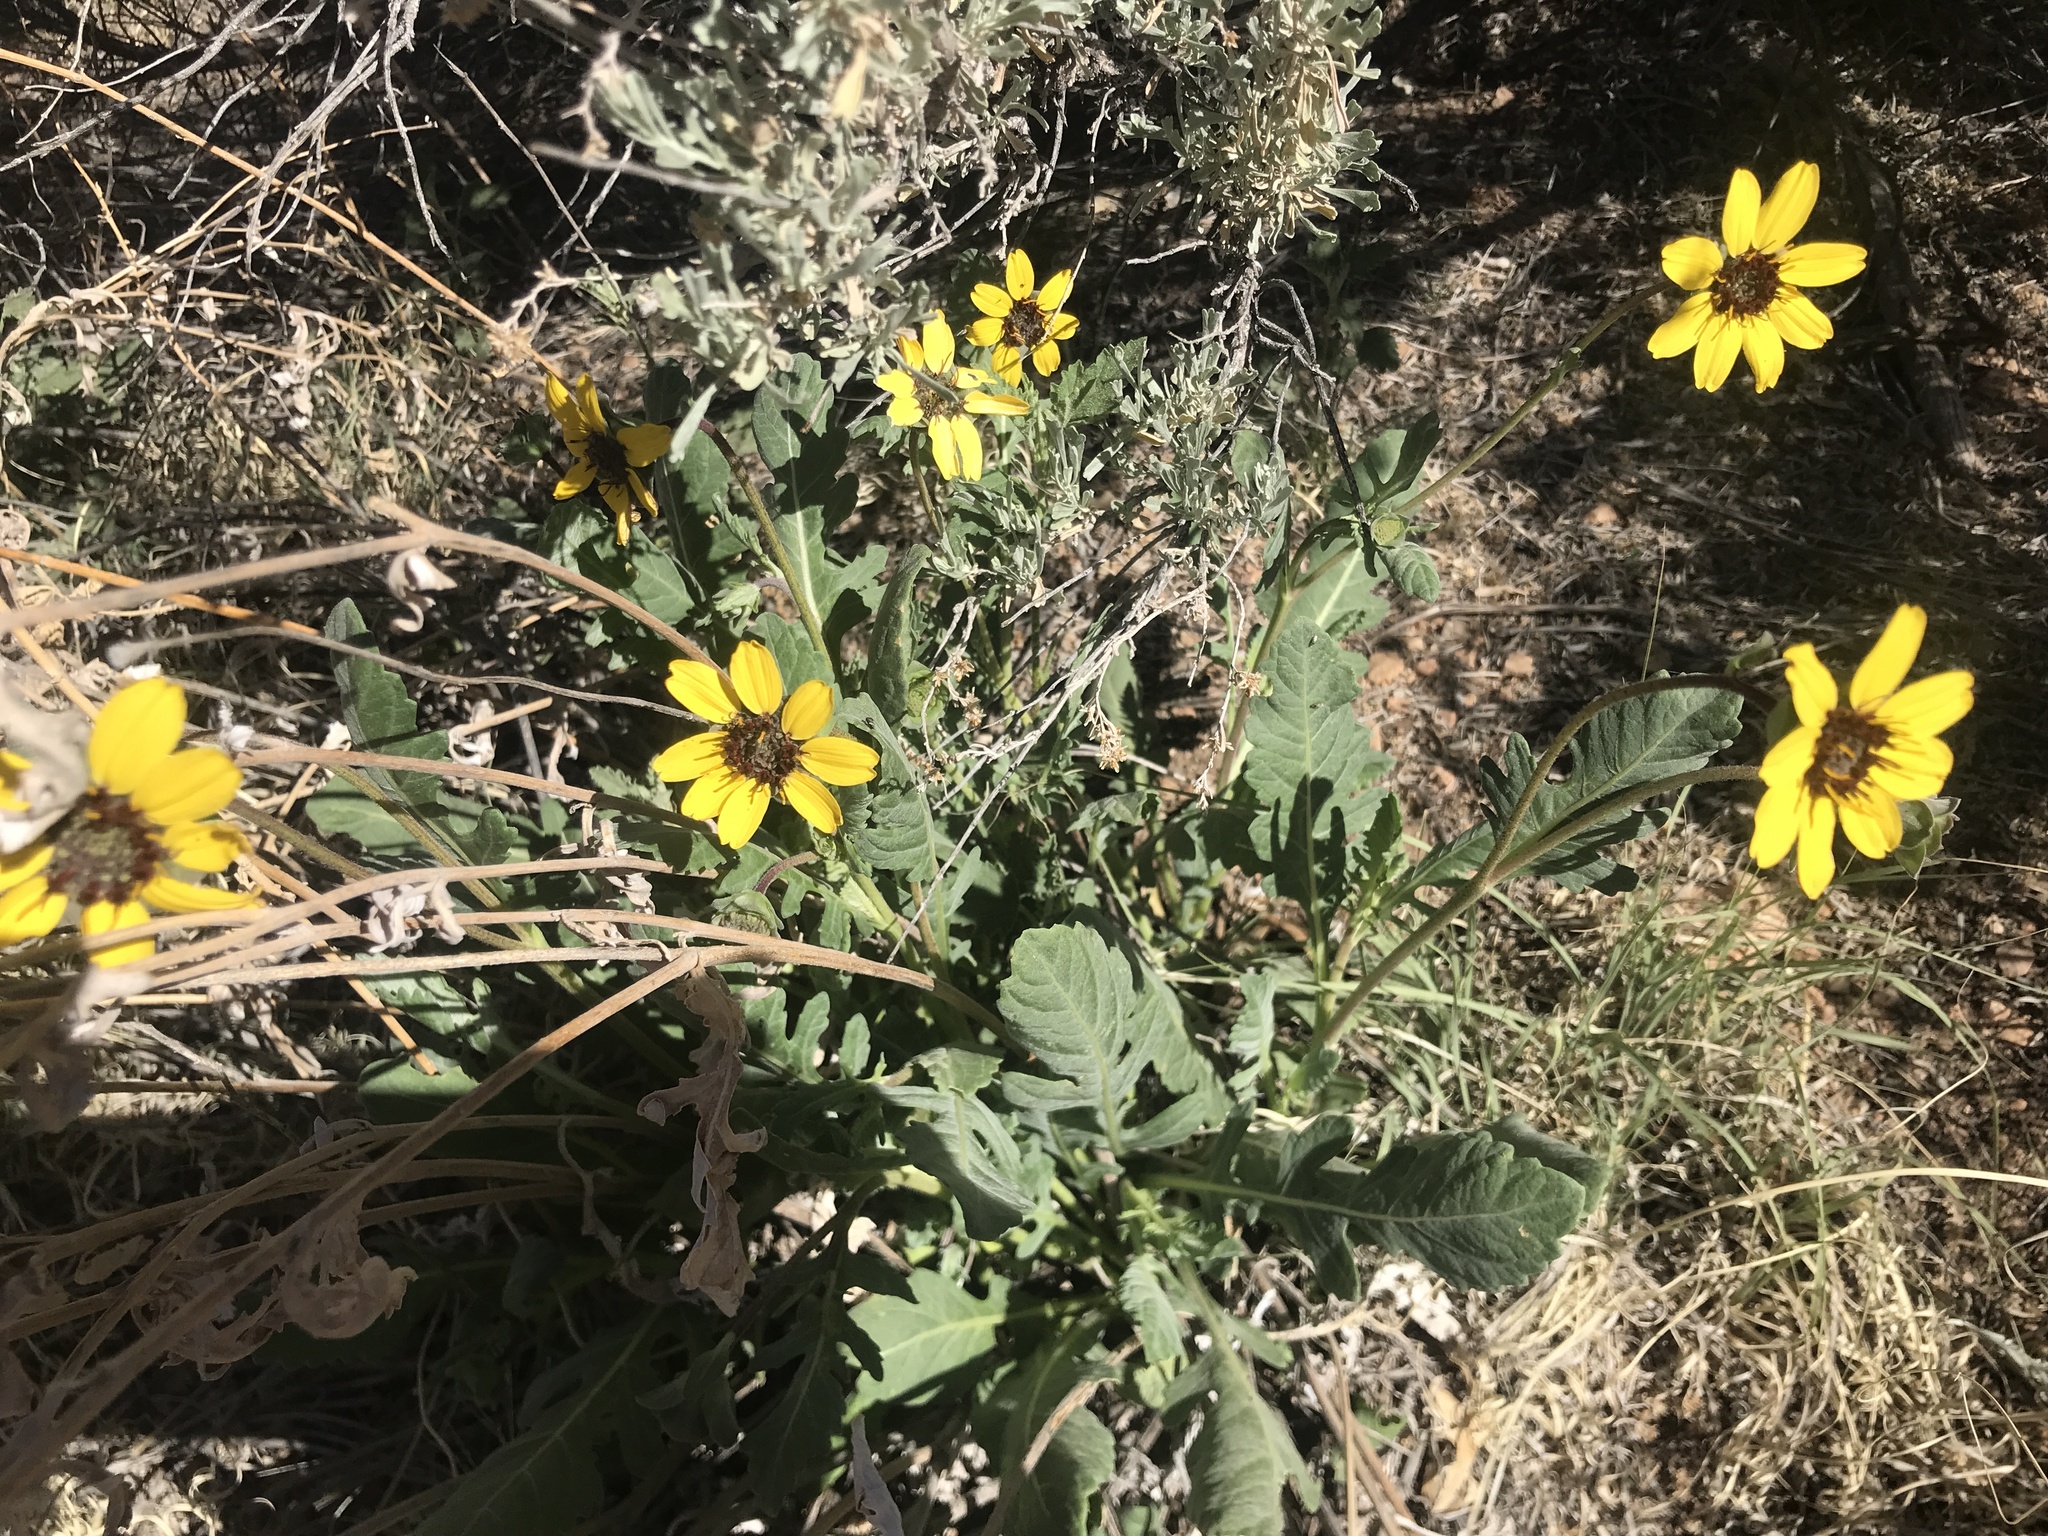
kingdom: Plantae
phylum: Tracheophyta
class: Magnoliopsida
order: Asterales
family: Asteraceae
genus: Berlandiera
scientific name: Berlandiera lyrata
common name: Chocolate-flower
